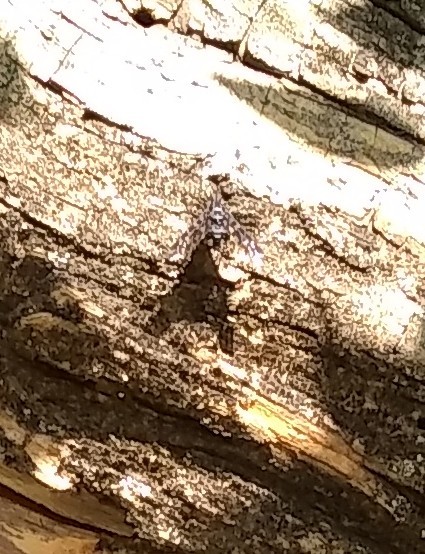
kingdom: Animalia
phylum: Arthropoda
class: Insecta
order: Diptera
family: Bombyliidae
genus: Xenox
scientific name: Xenox tigrinus
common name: Tiger bee fly
